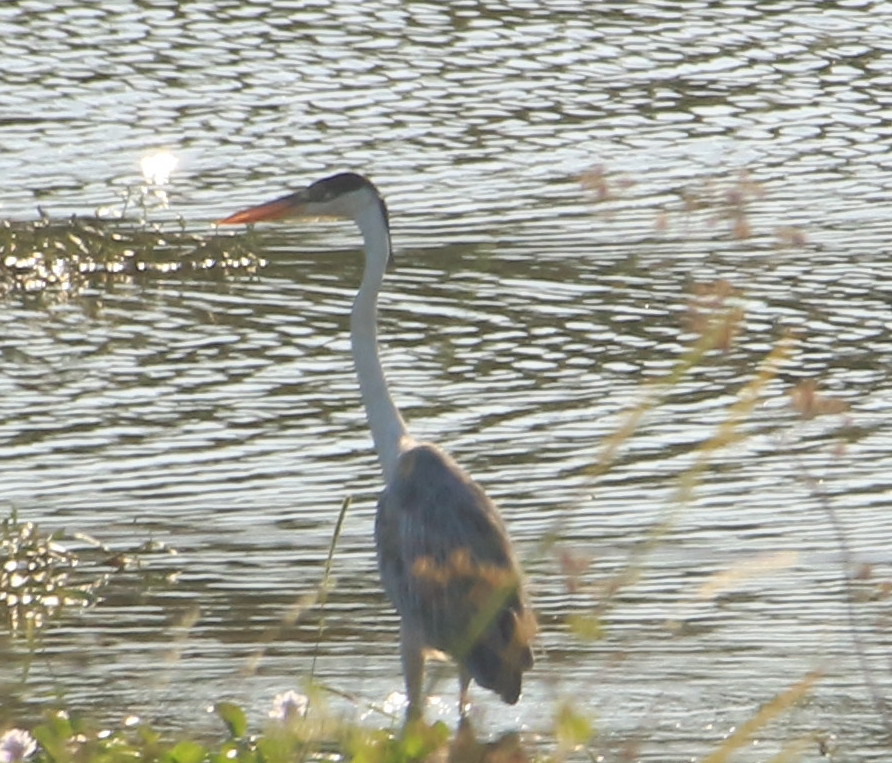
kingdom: Animalia
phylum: Chordata
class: Aves
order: Pelecaniformes
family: Ardeidae
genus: Ardea
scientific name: Ardea cocoi
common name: Cocoi heron
